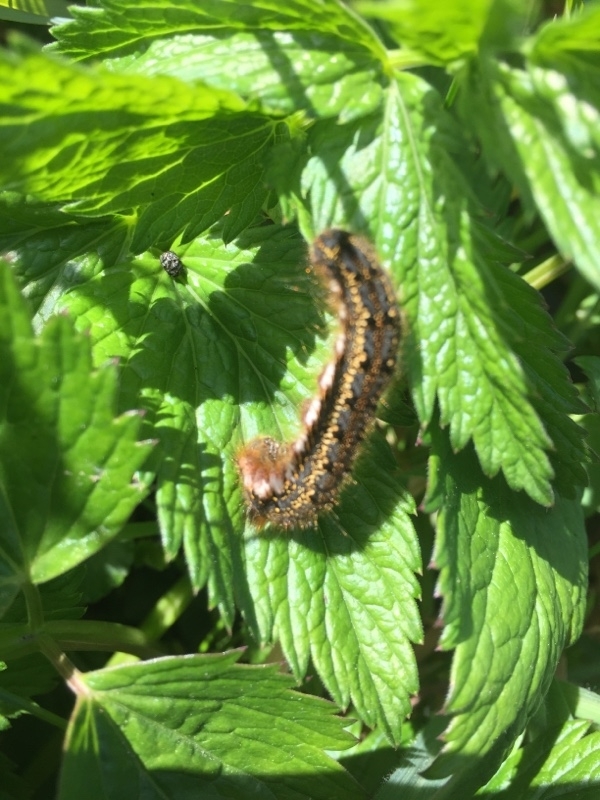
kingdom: Animalia
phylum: Arthropoda
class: Insecta
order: Lepidoptera
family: Lasiocampidae
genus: Euthrix
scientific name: Euthrix potatoria
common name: Drinker
